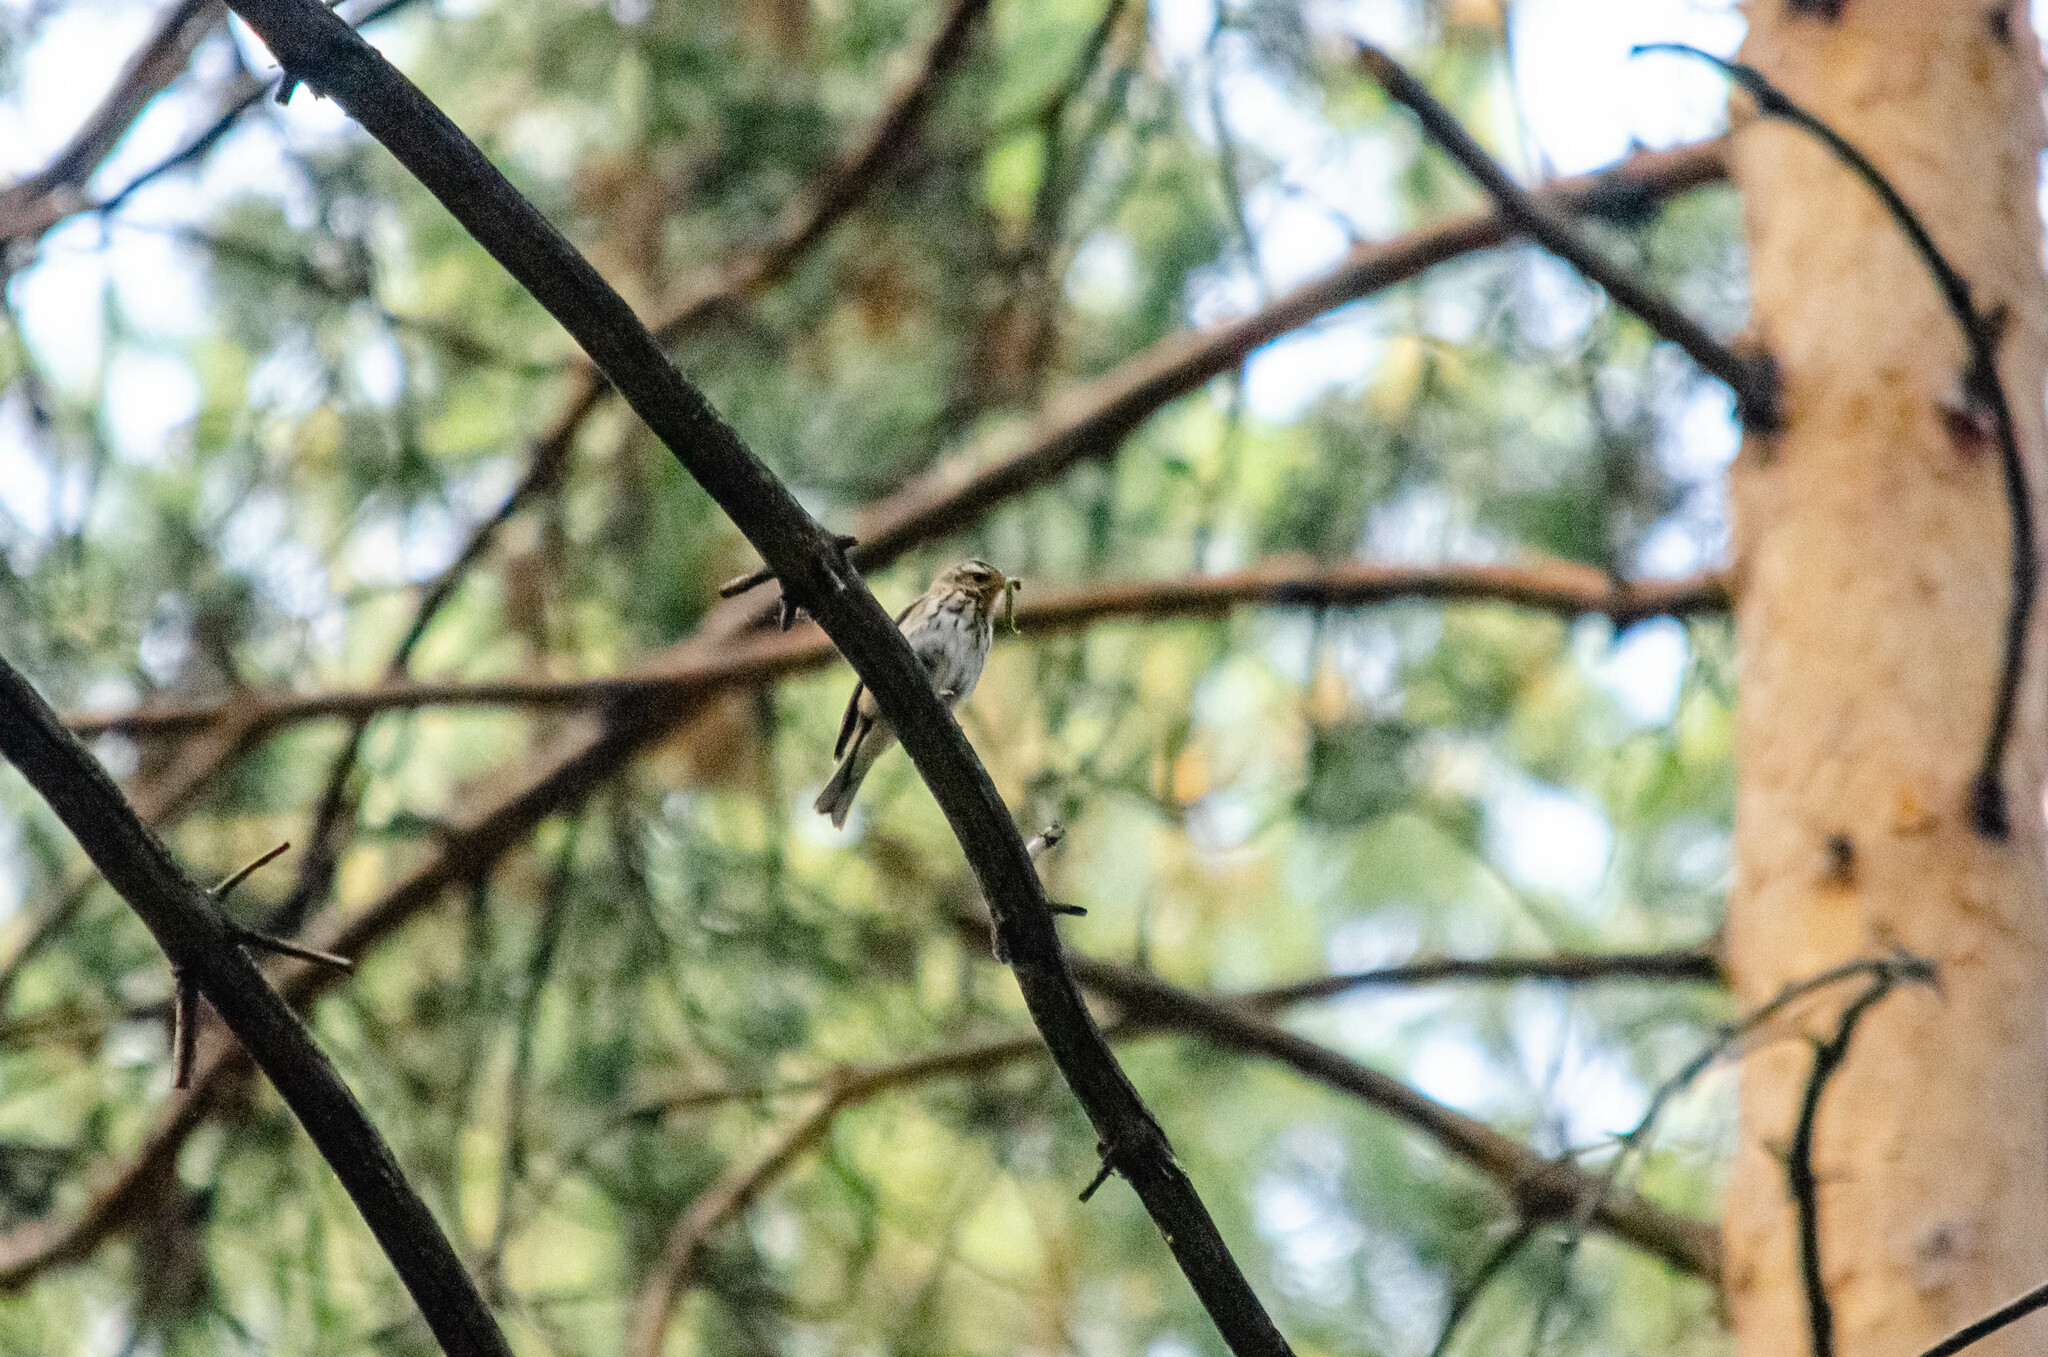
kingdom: Animalia
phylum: Chordata
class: Aves
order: Passeriformes
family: Motacillidae
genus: Anthus
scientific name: Anthus hodgsoni
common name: Olive-backed pipit
